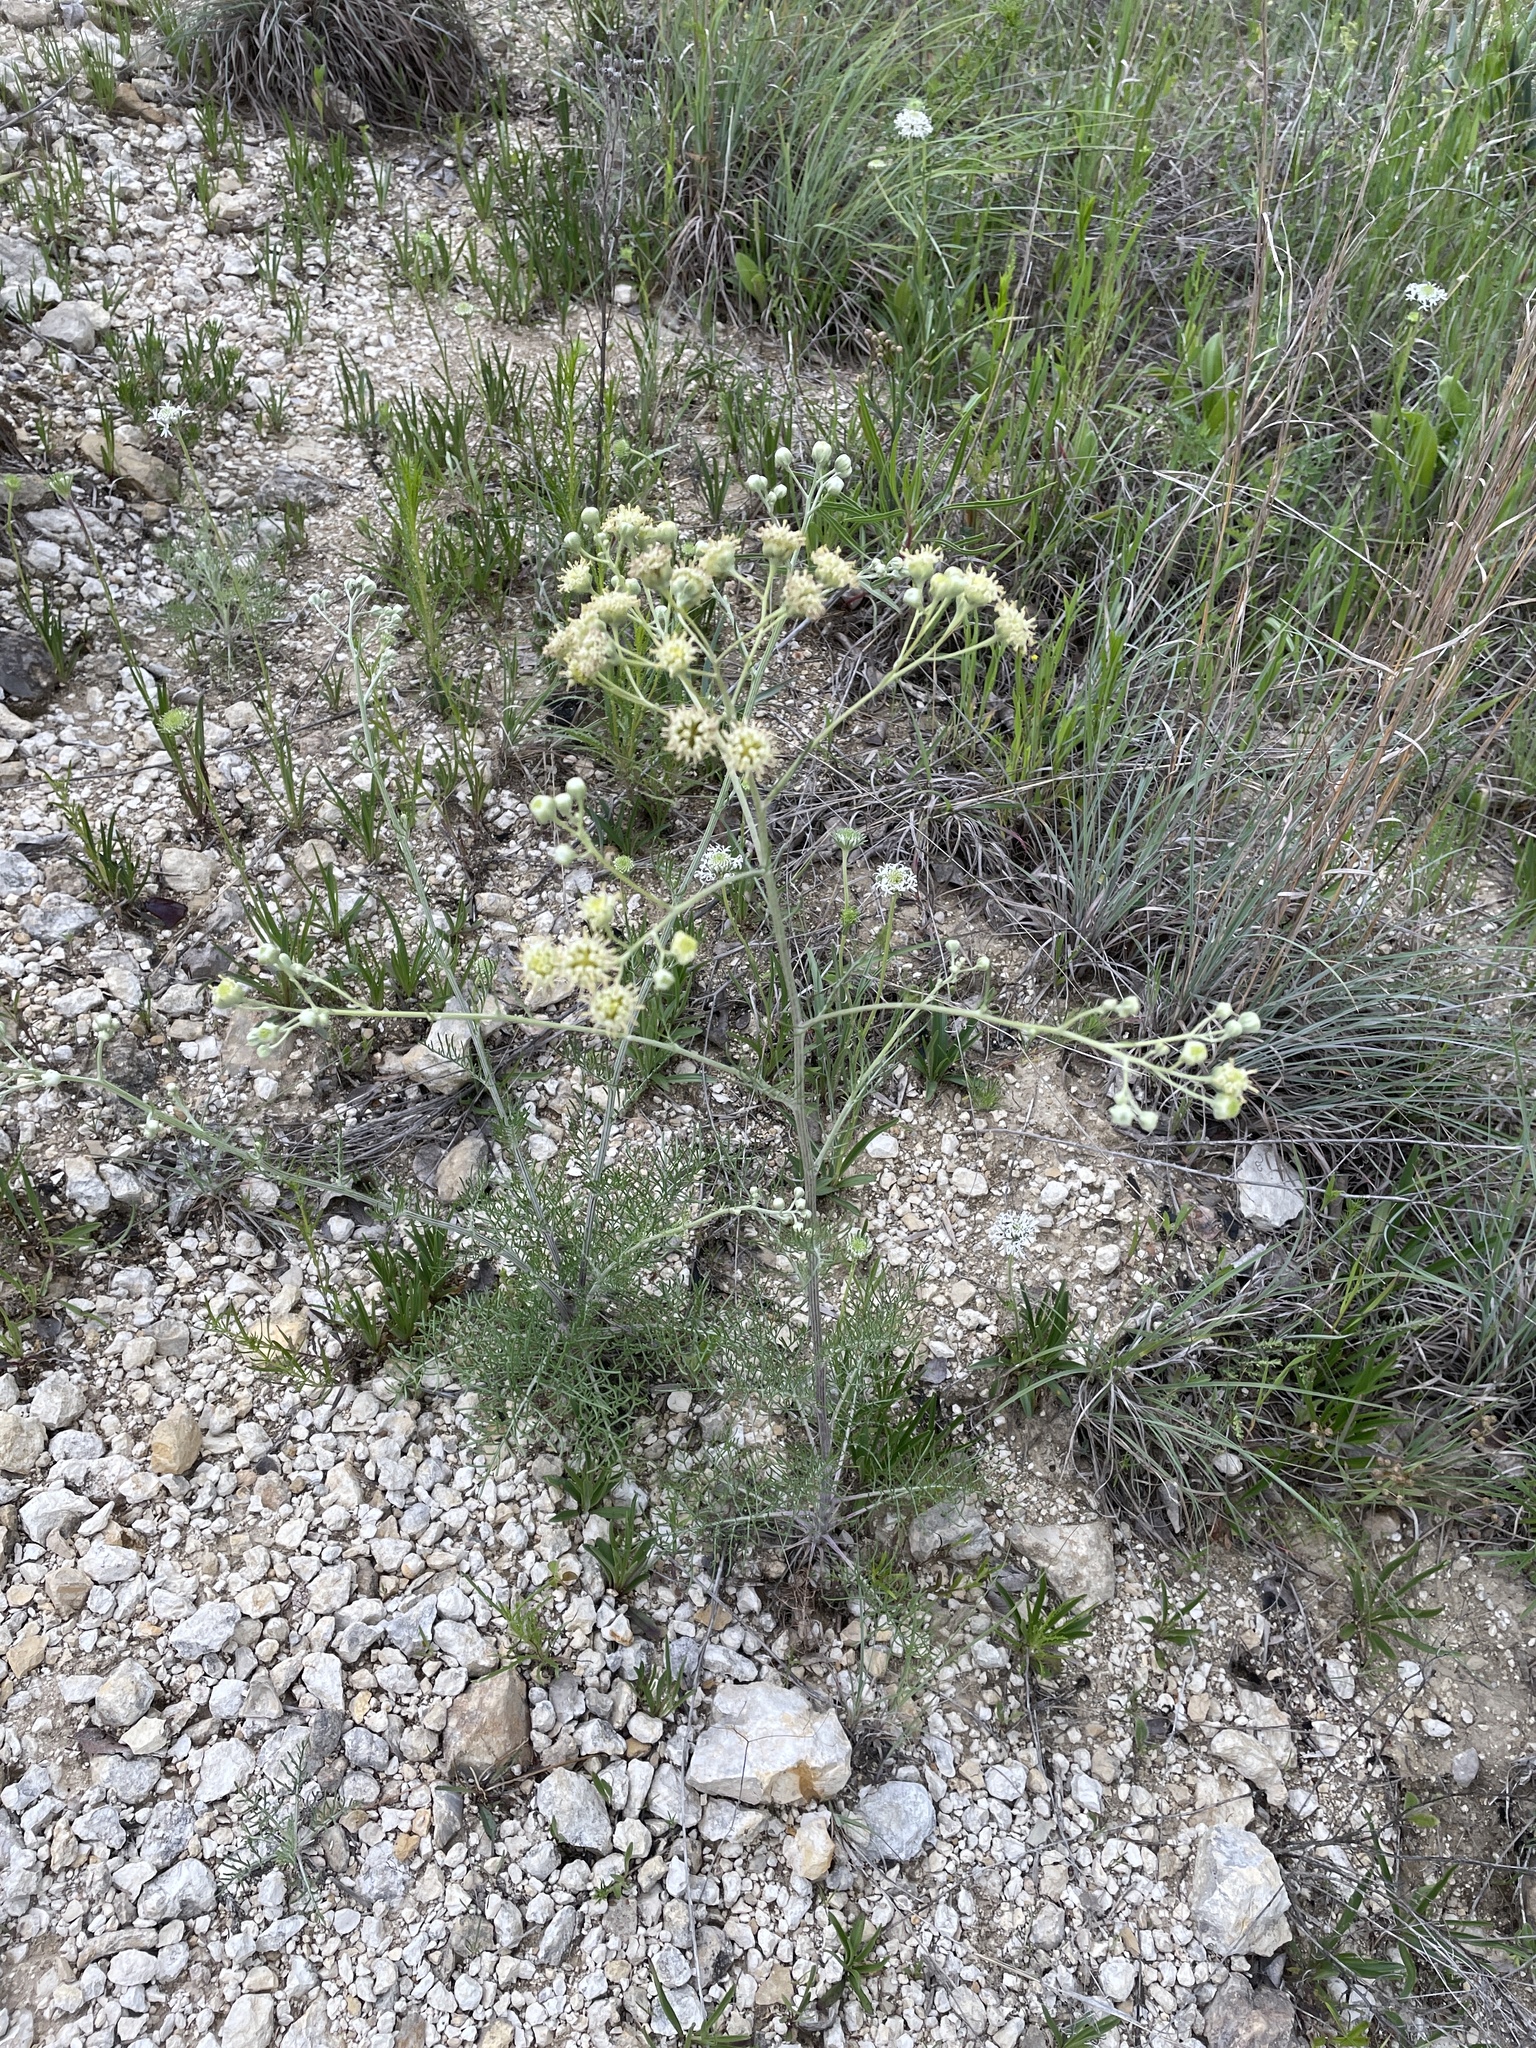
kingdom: Plantae
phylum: Tracheophyta
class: Magnoliopsida
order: Asterales
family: Asteraceae
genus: Hymenopappus
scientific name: Hymenopappus scabiosaeus
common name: Carolina woollywhite
